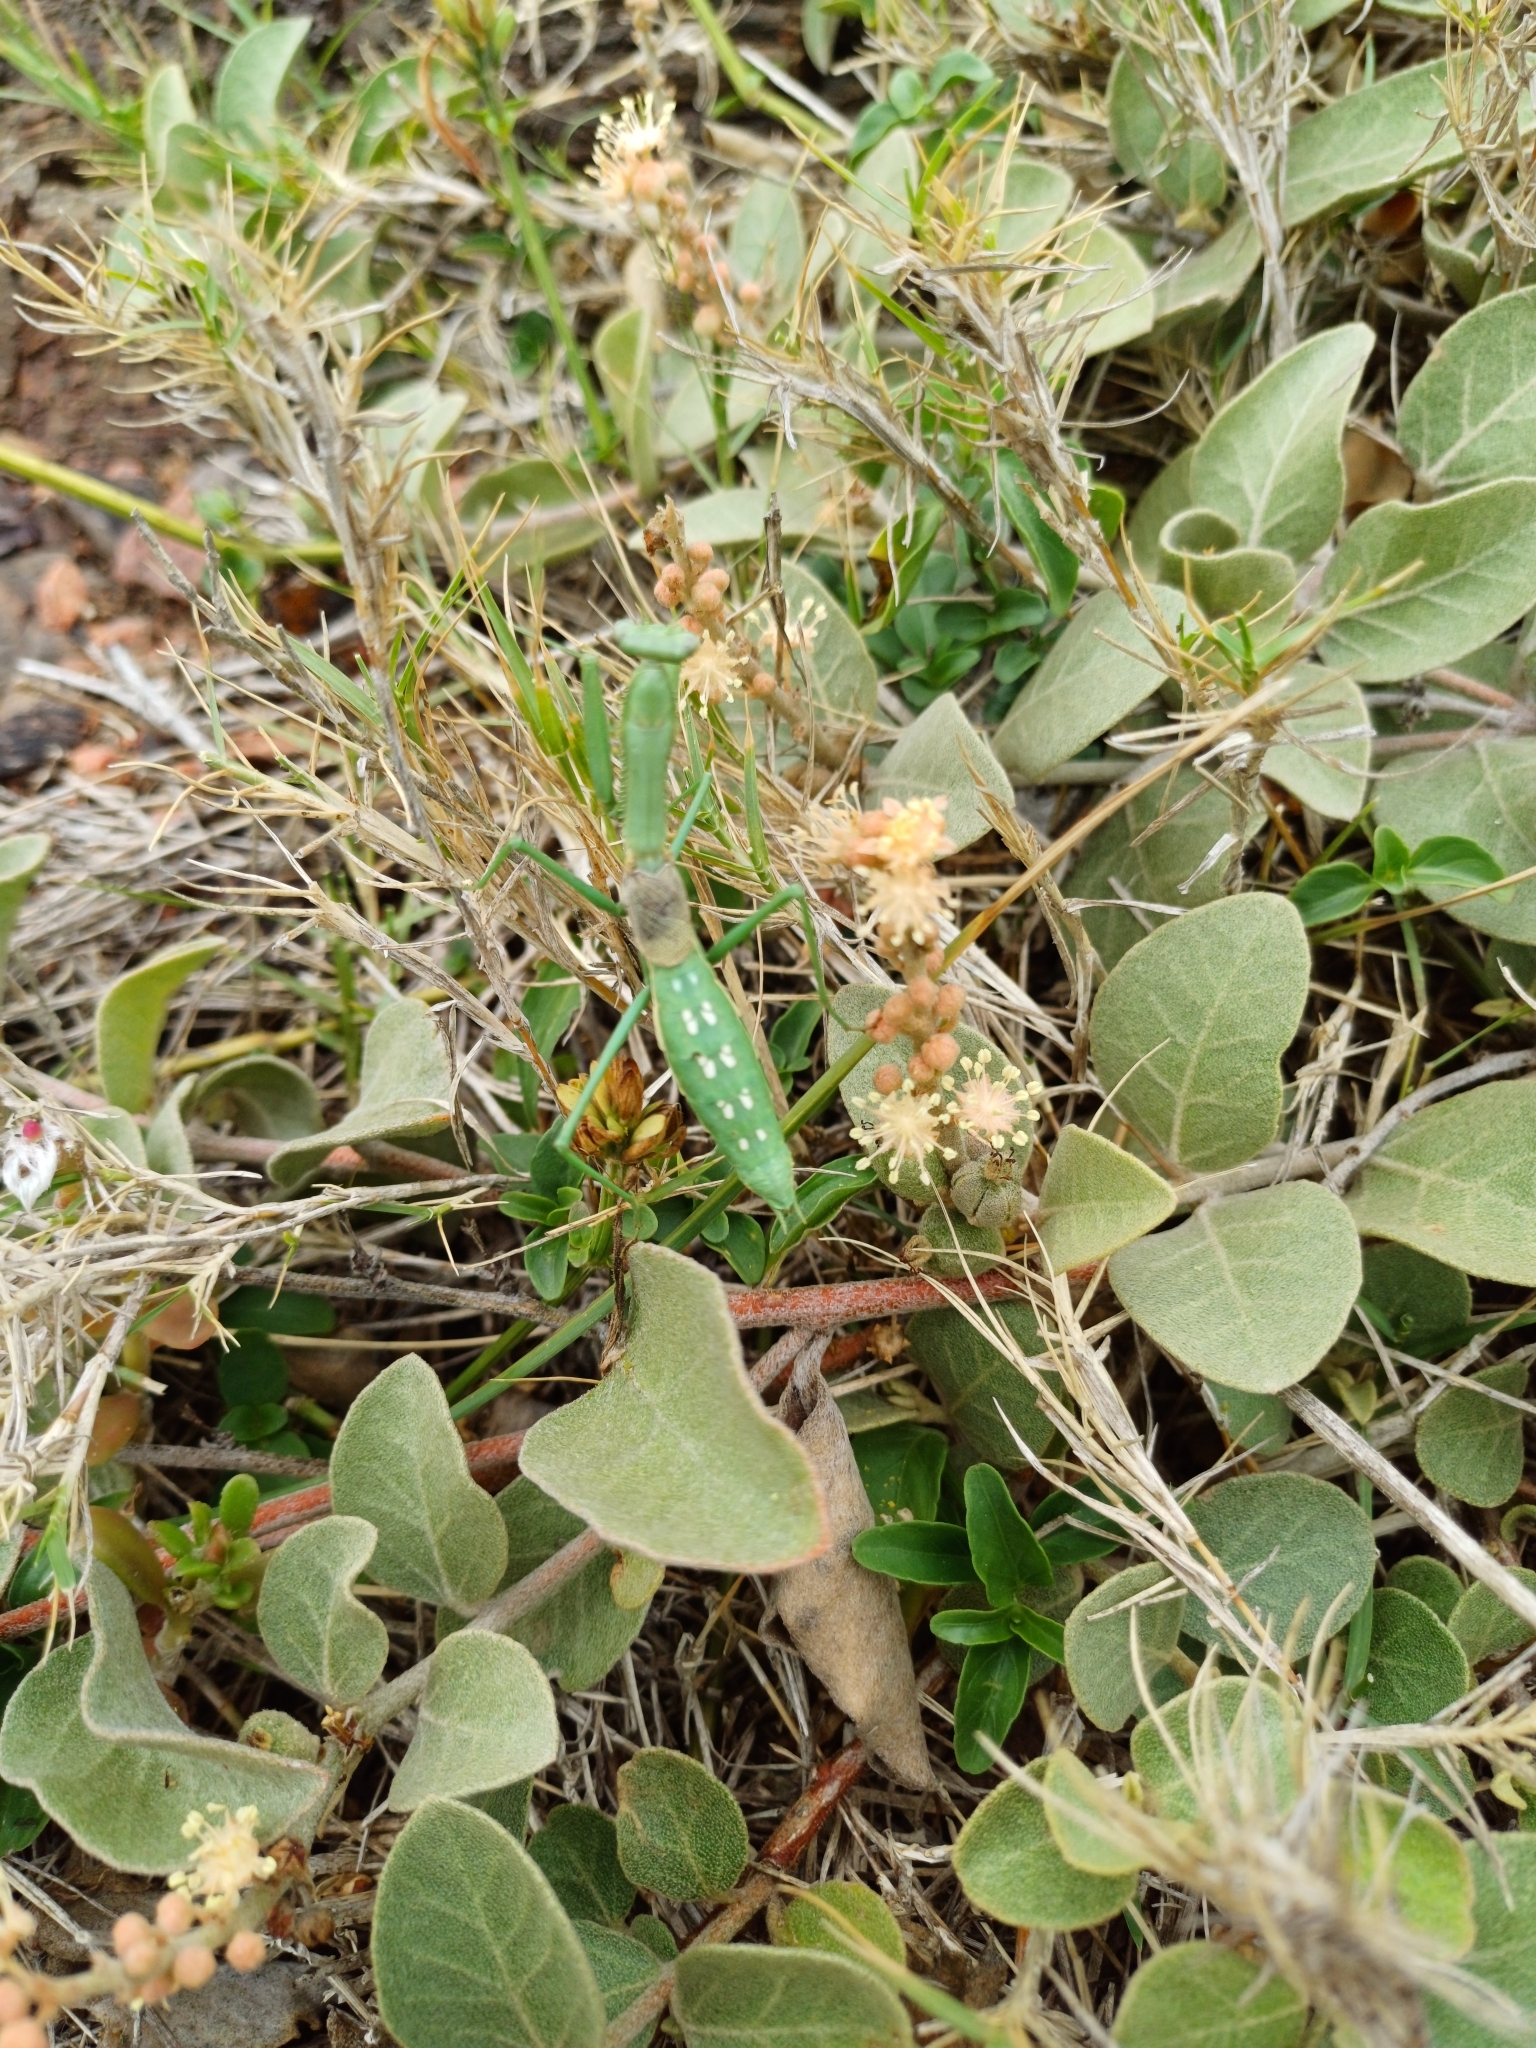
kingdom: Animalia
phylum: Arthropoda
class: Insecta
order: Mantodea
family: Coptopterygidae
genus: Coptopteryx
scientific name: Coptopteryx gayi
